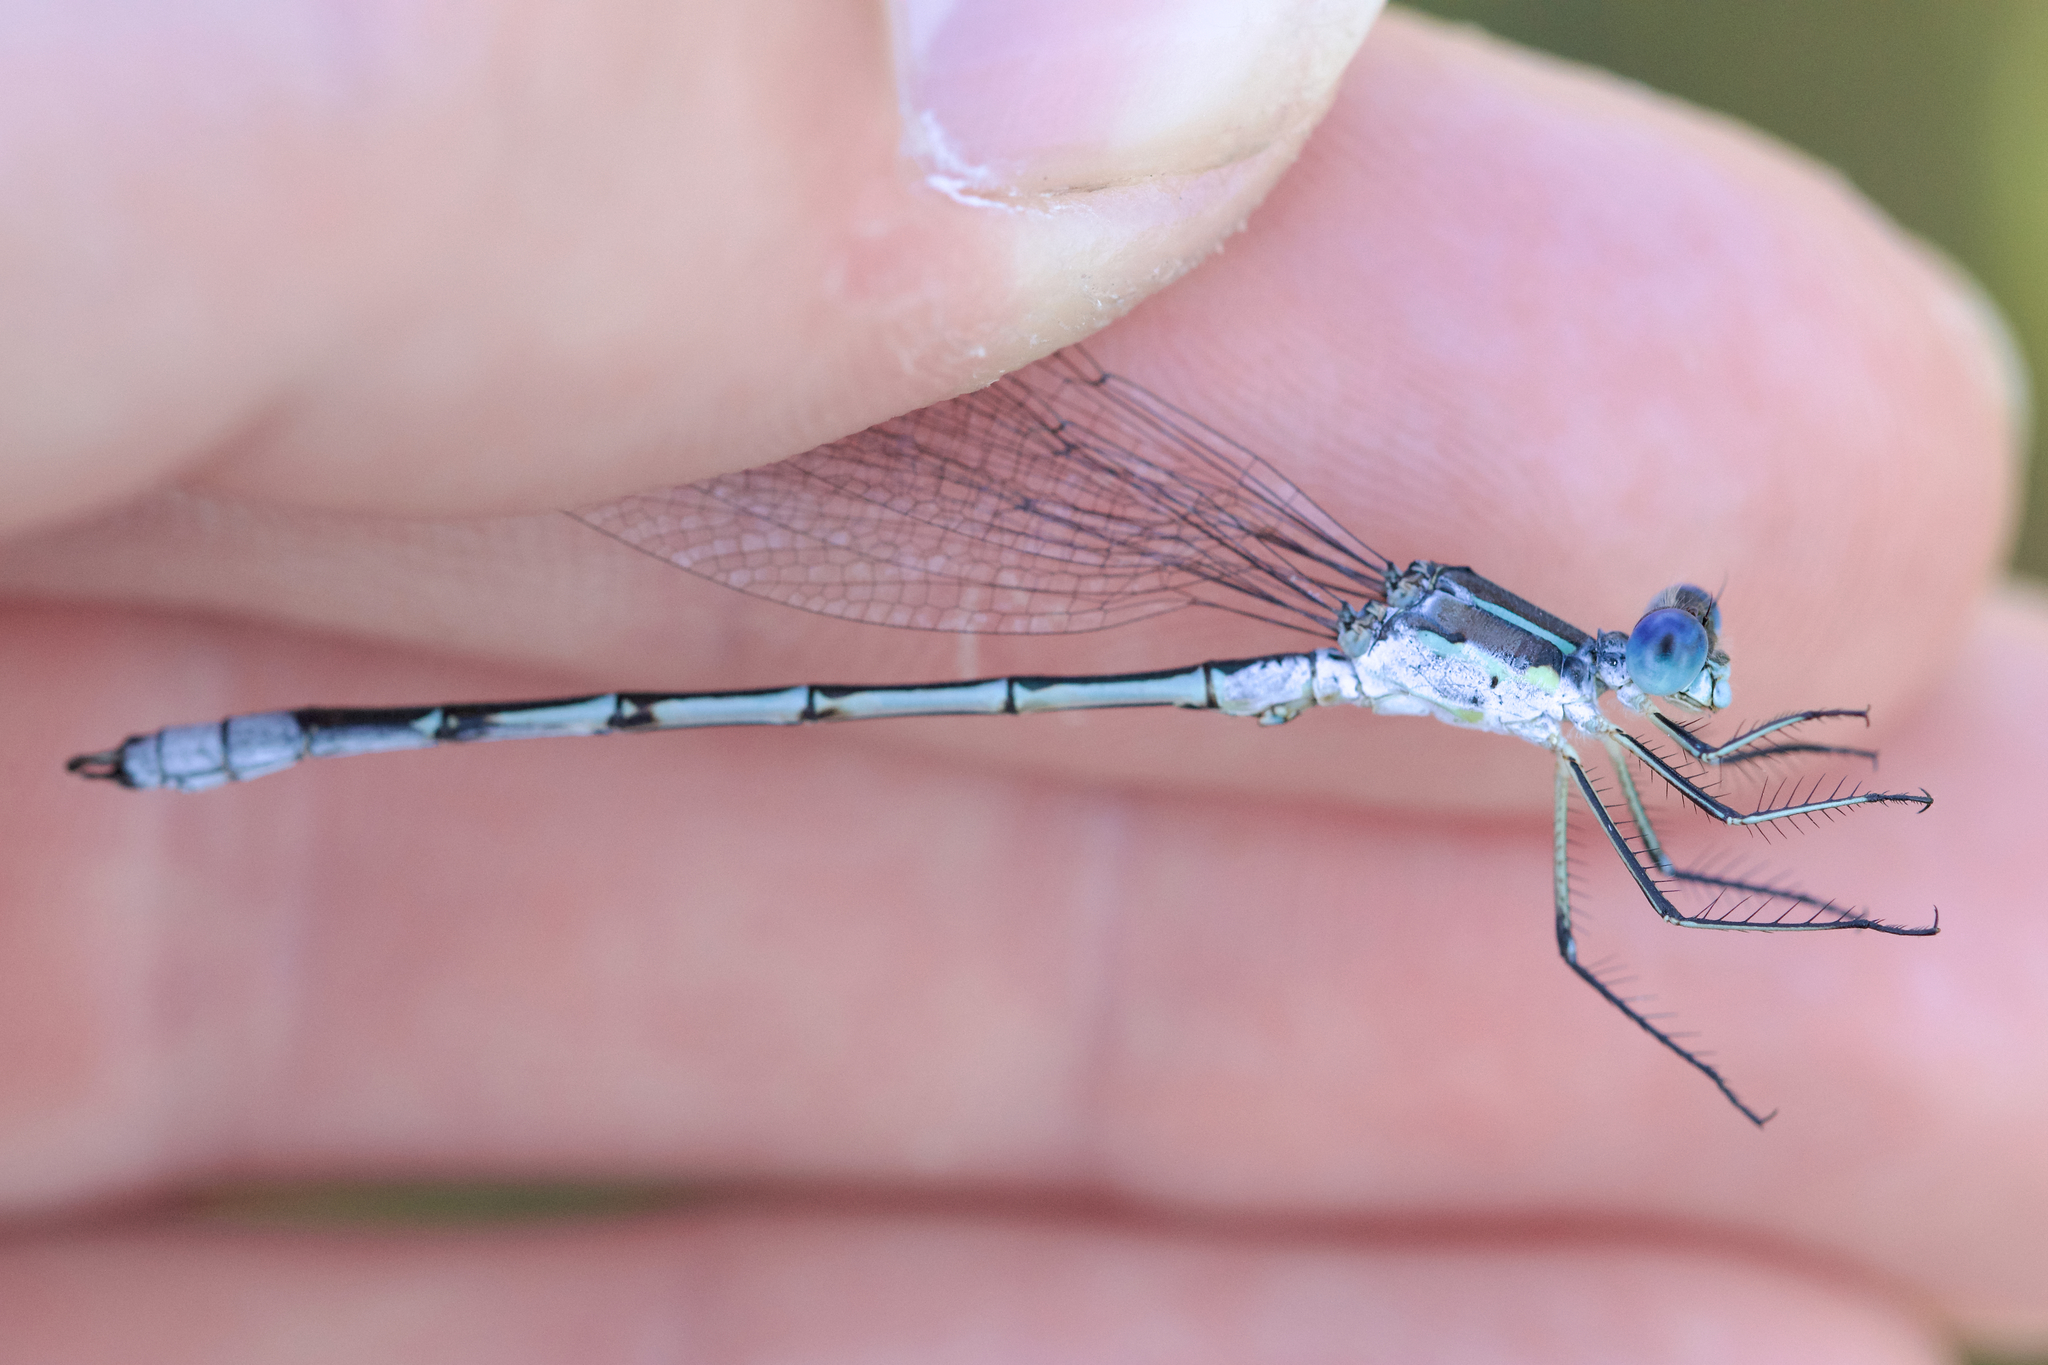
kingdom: Animalia
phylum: Arthropoda
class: Insecta
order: Odonata
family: Lestidae
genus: Lestes
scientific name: Lestes unguiculatus
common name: Lyre-tipped spreadwing
